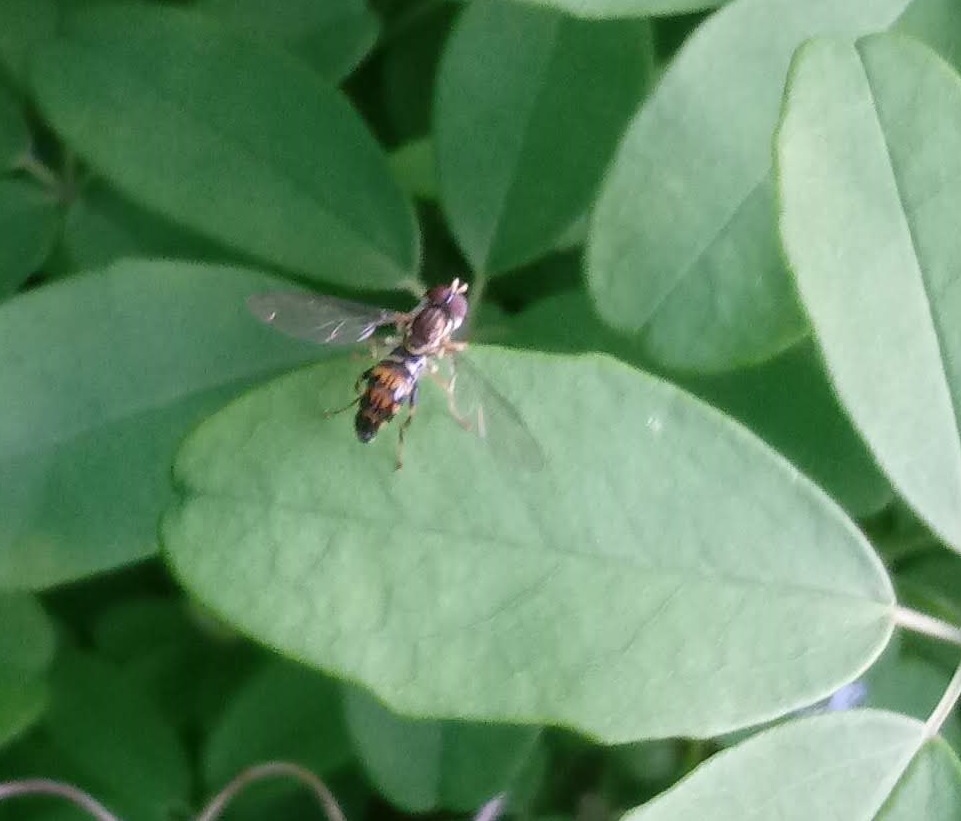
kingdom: Animalia
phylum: Arthropoda
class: Insecta
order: Diptera
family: Syrphidae
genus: Toxomerus
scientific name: Toxomerus geminatus
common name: Eastern calligrapher
